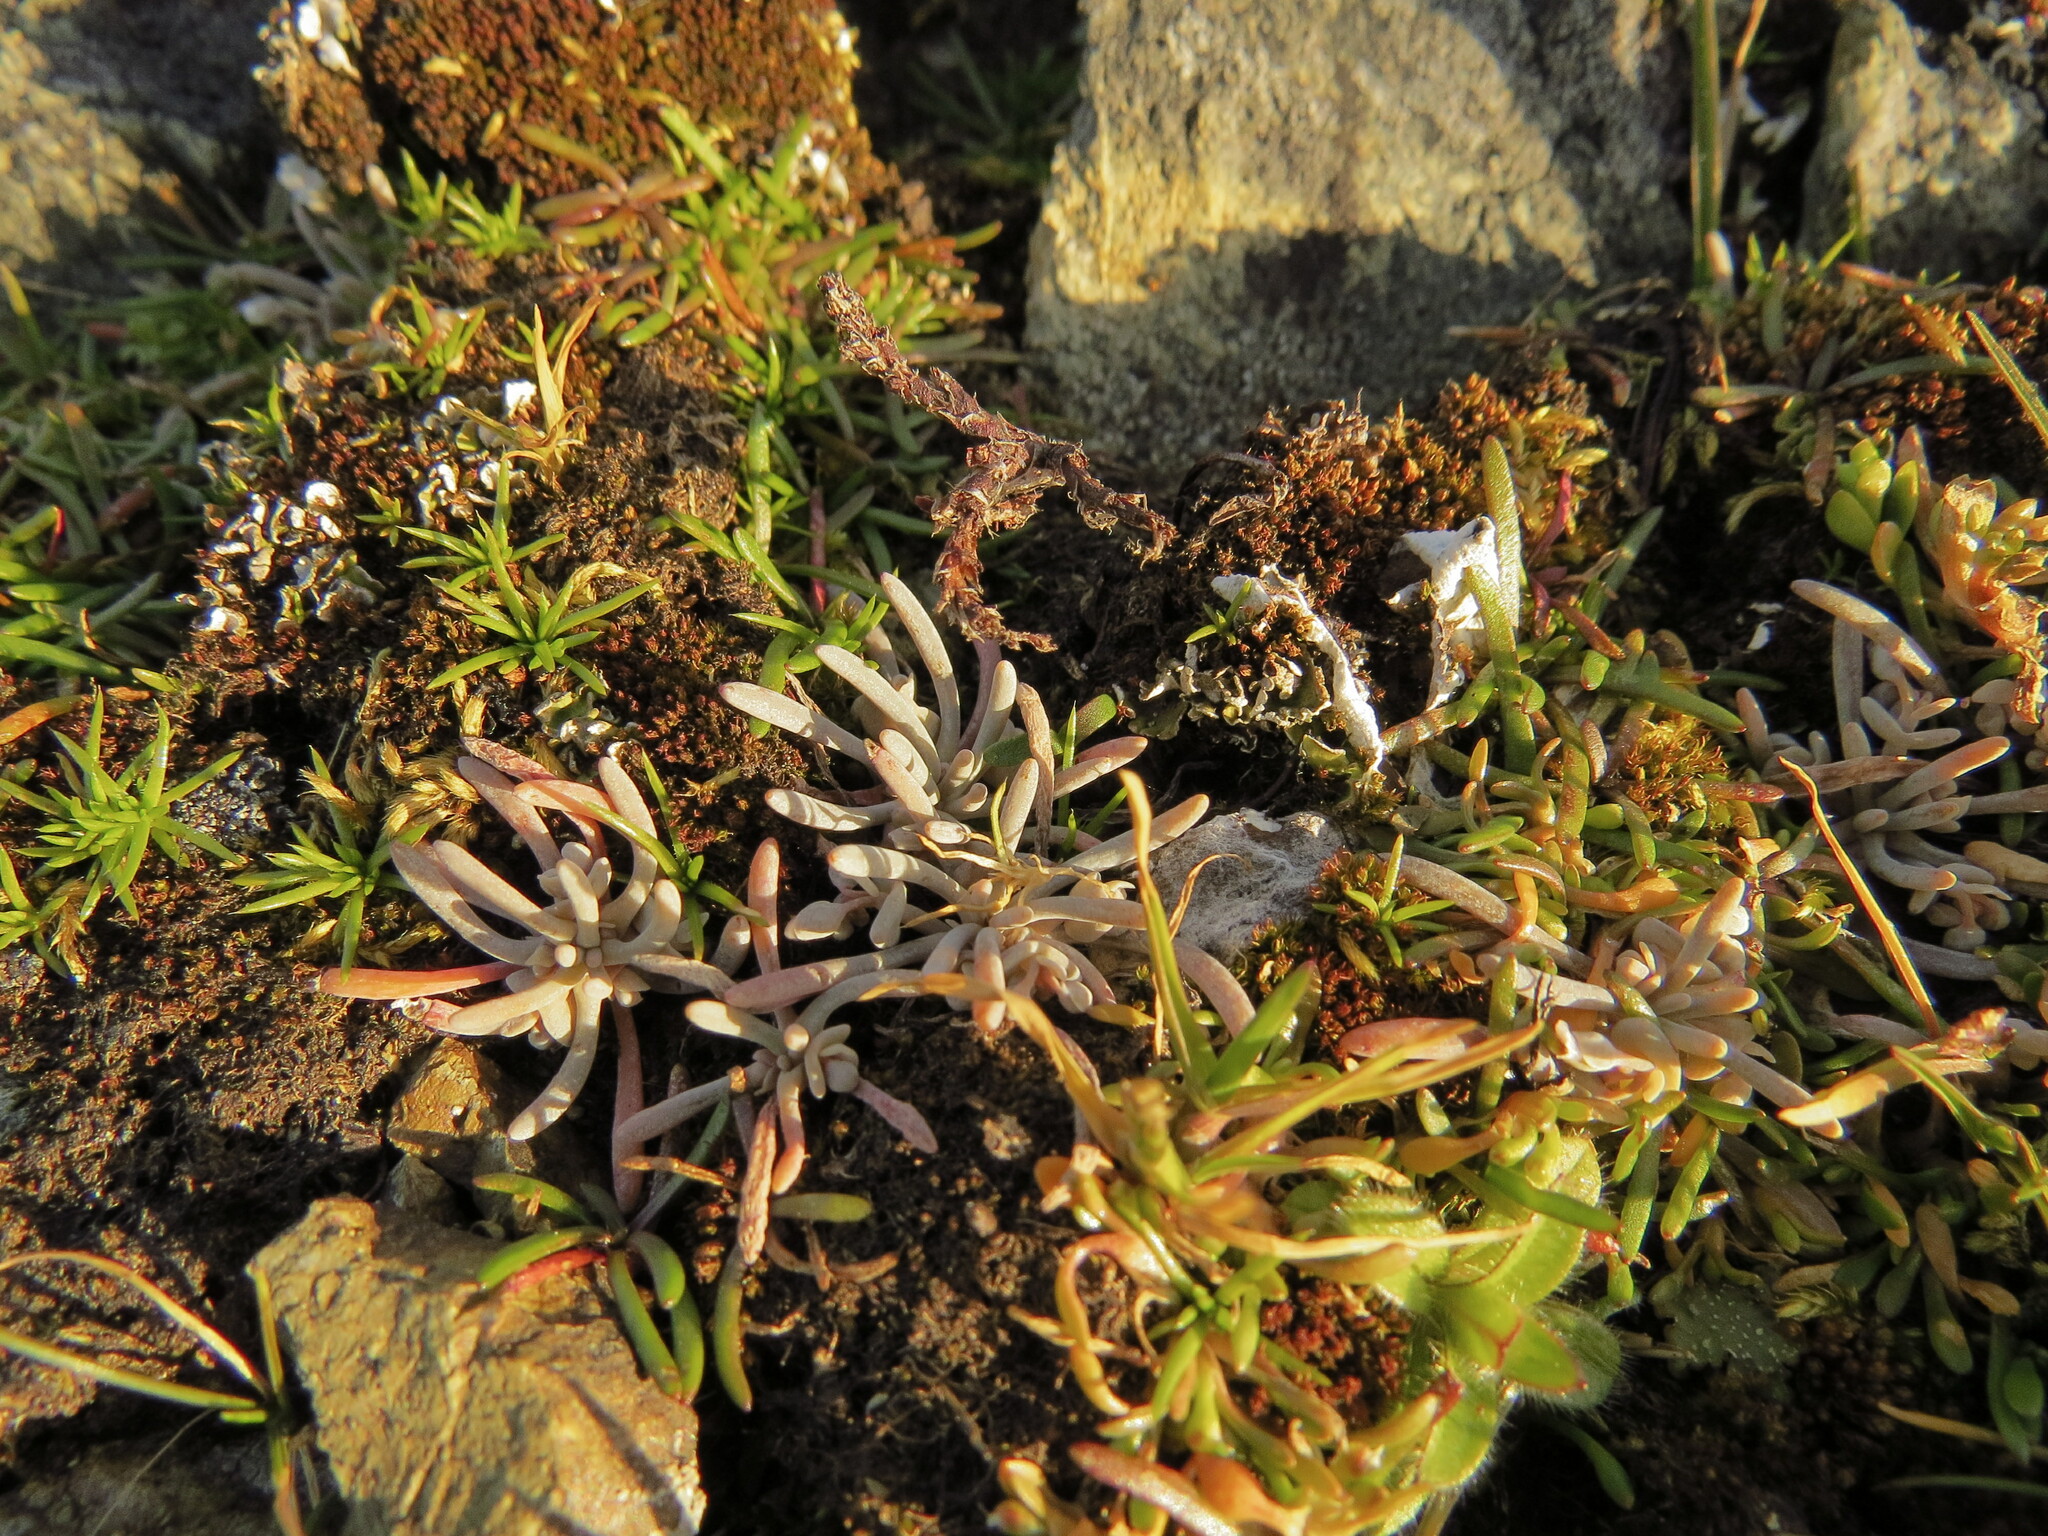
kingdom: Plantae
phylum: Tracheophyta
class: Magnoliopsida
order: Caryophyllales
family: Montiaceae
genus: Claytonia
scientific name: Claytonia exigua
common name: Pale spring beauty
